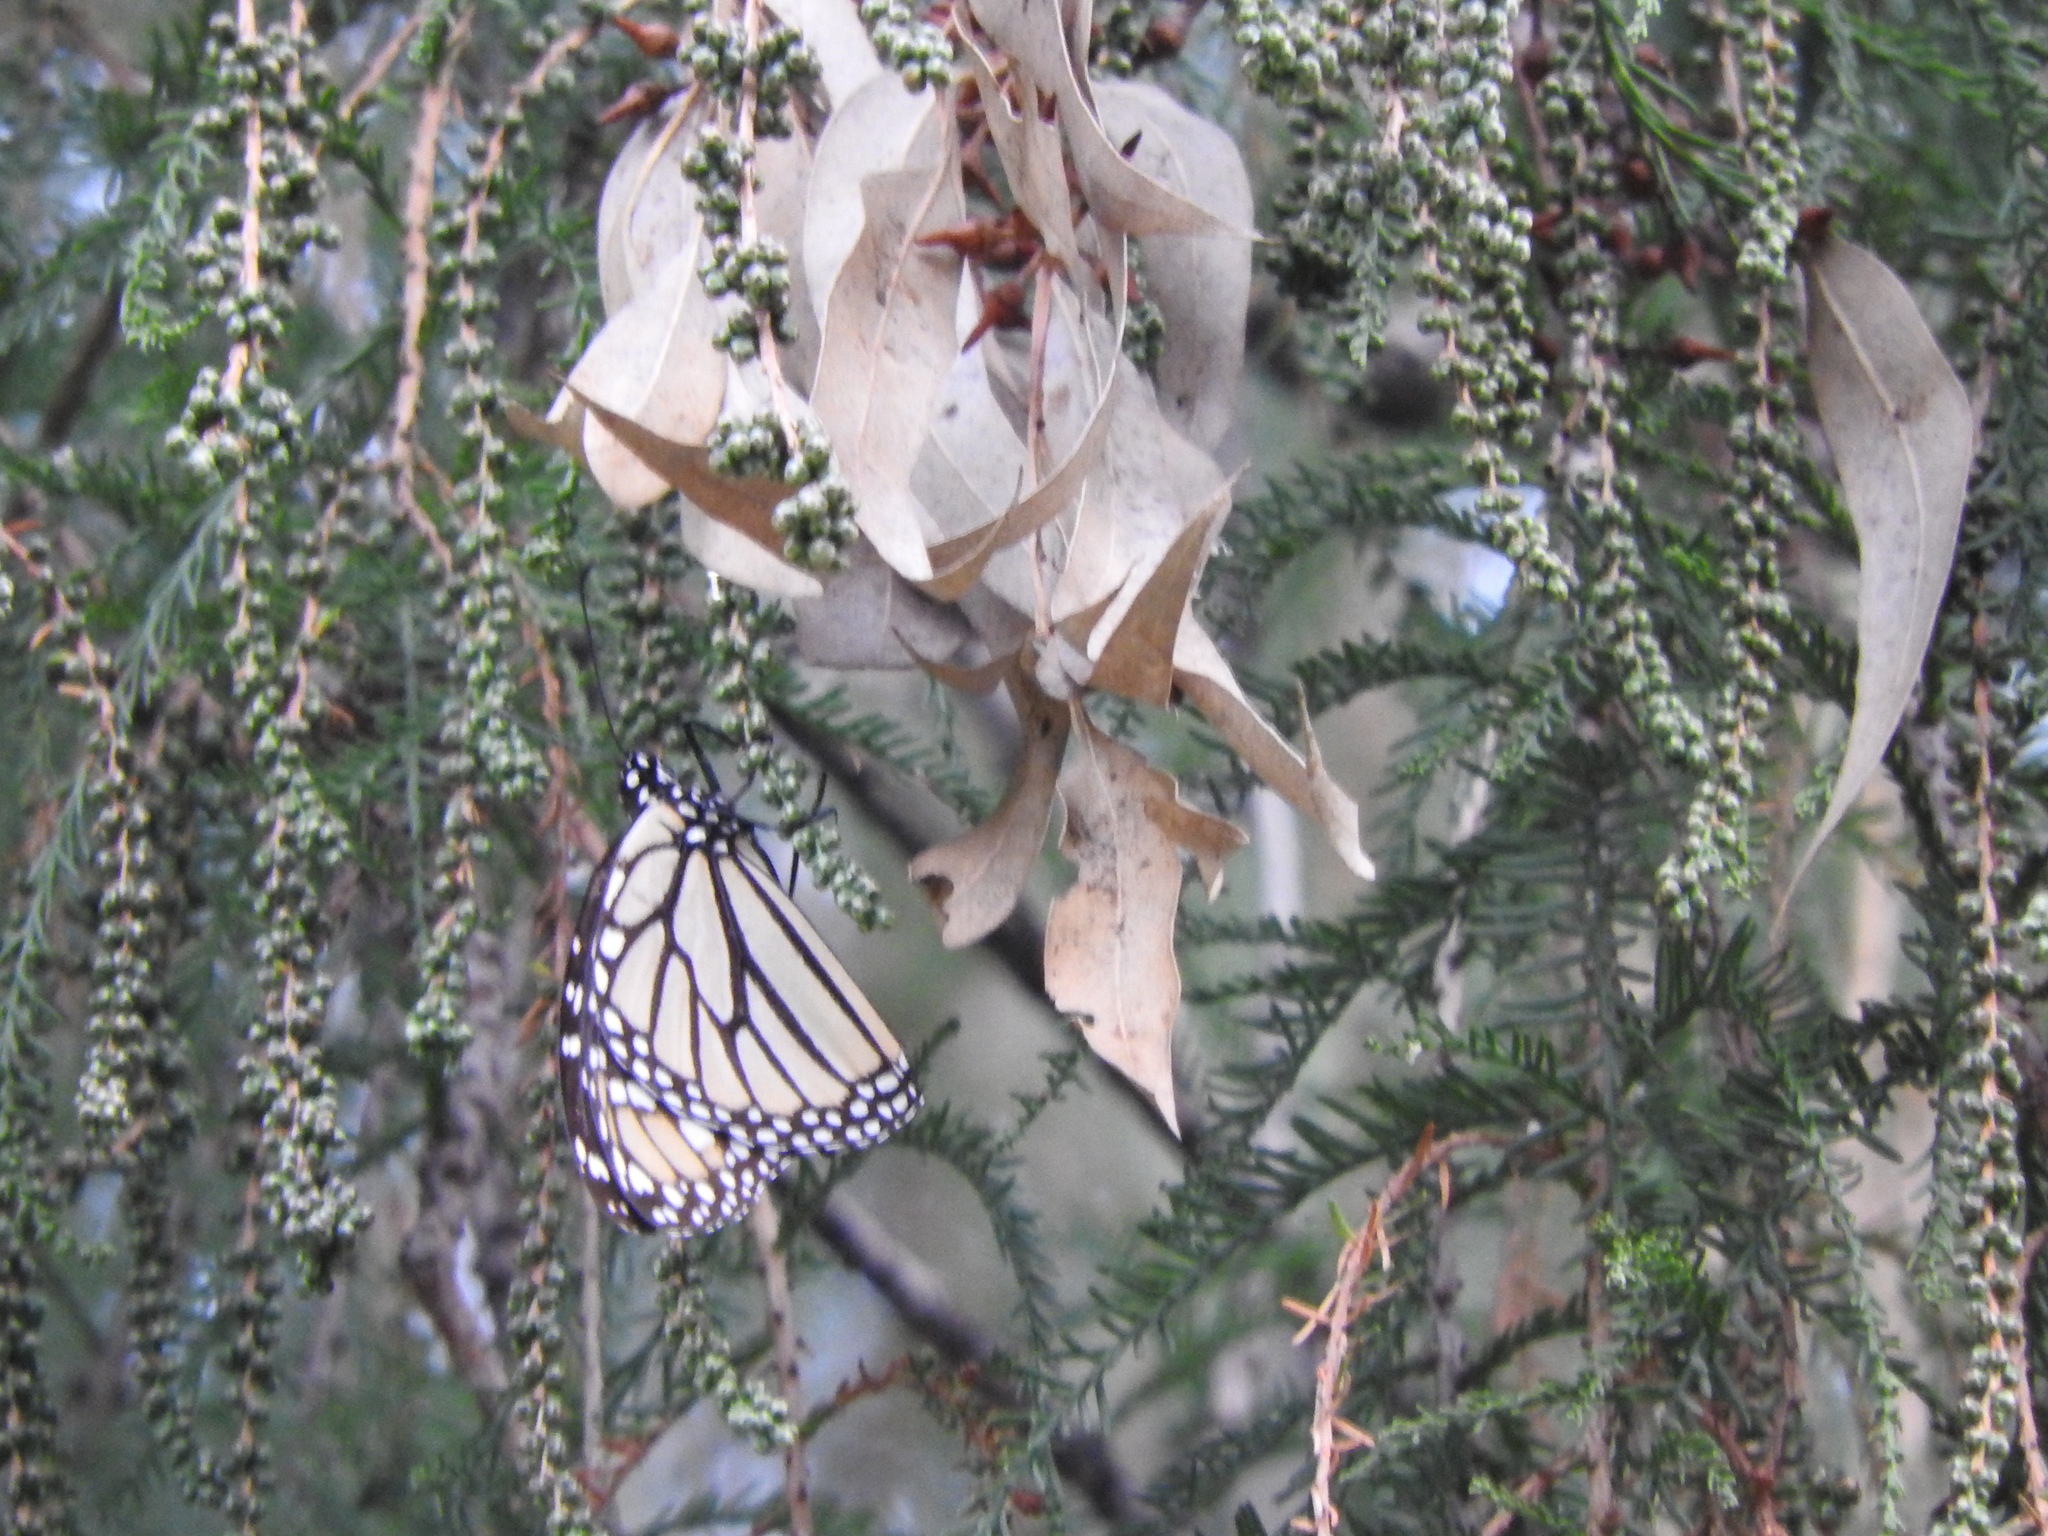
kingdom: Animalia
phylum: Arthropoda
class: Insecta
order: Lepidoptera
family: Nymphalidae
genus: Danaus
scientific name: Danaus plexippus
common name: Monarch
